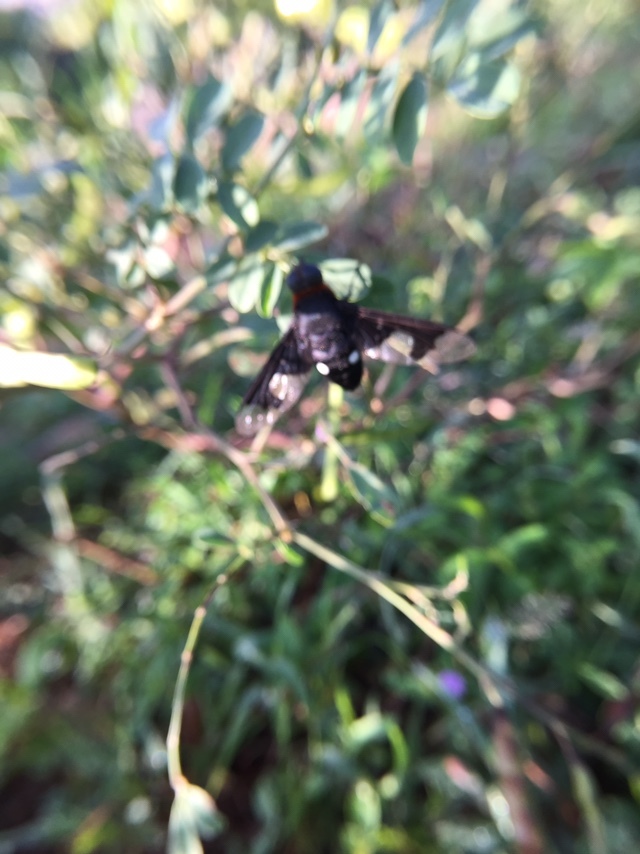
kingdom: Animalia
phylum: Arthropoda
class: Insecta
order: Diptera
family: Bombyliidae
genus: Litorhina
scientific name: Litorhina lar
